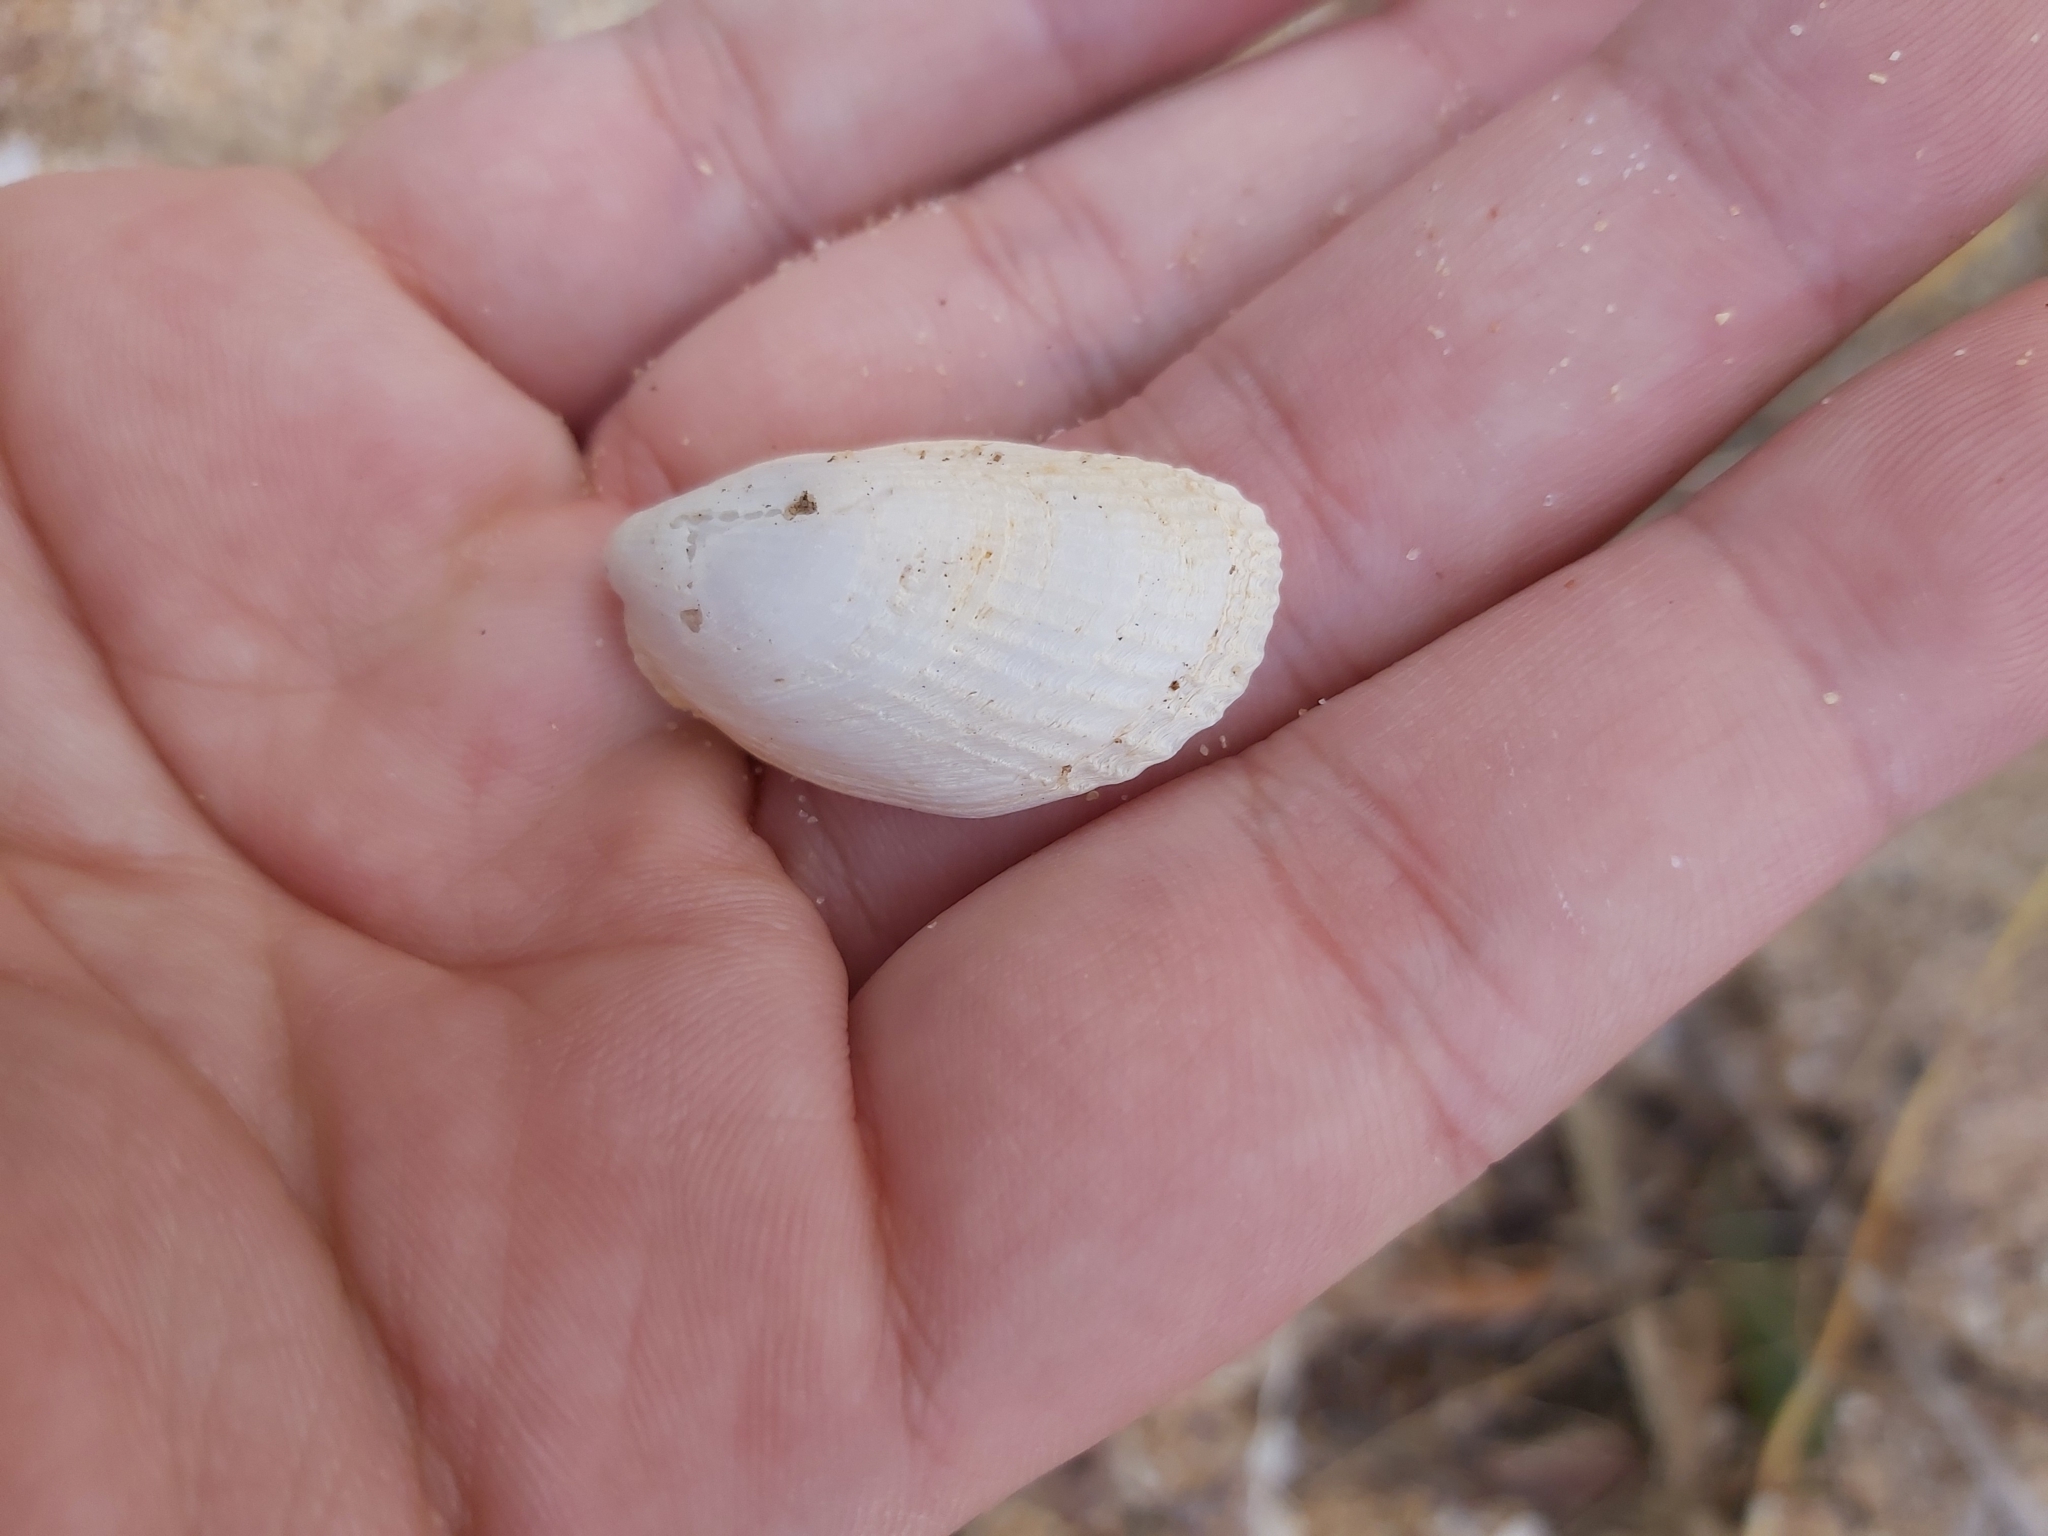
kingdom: Animalia
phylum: Mollusca
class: Bivalvia
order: Limida
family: Limidae
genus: Limatula
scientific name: Limatula strangei
